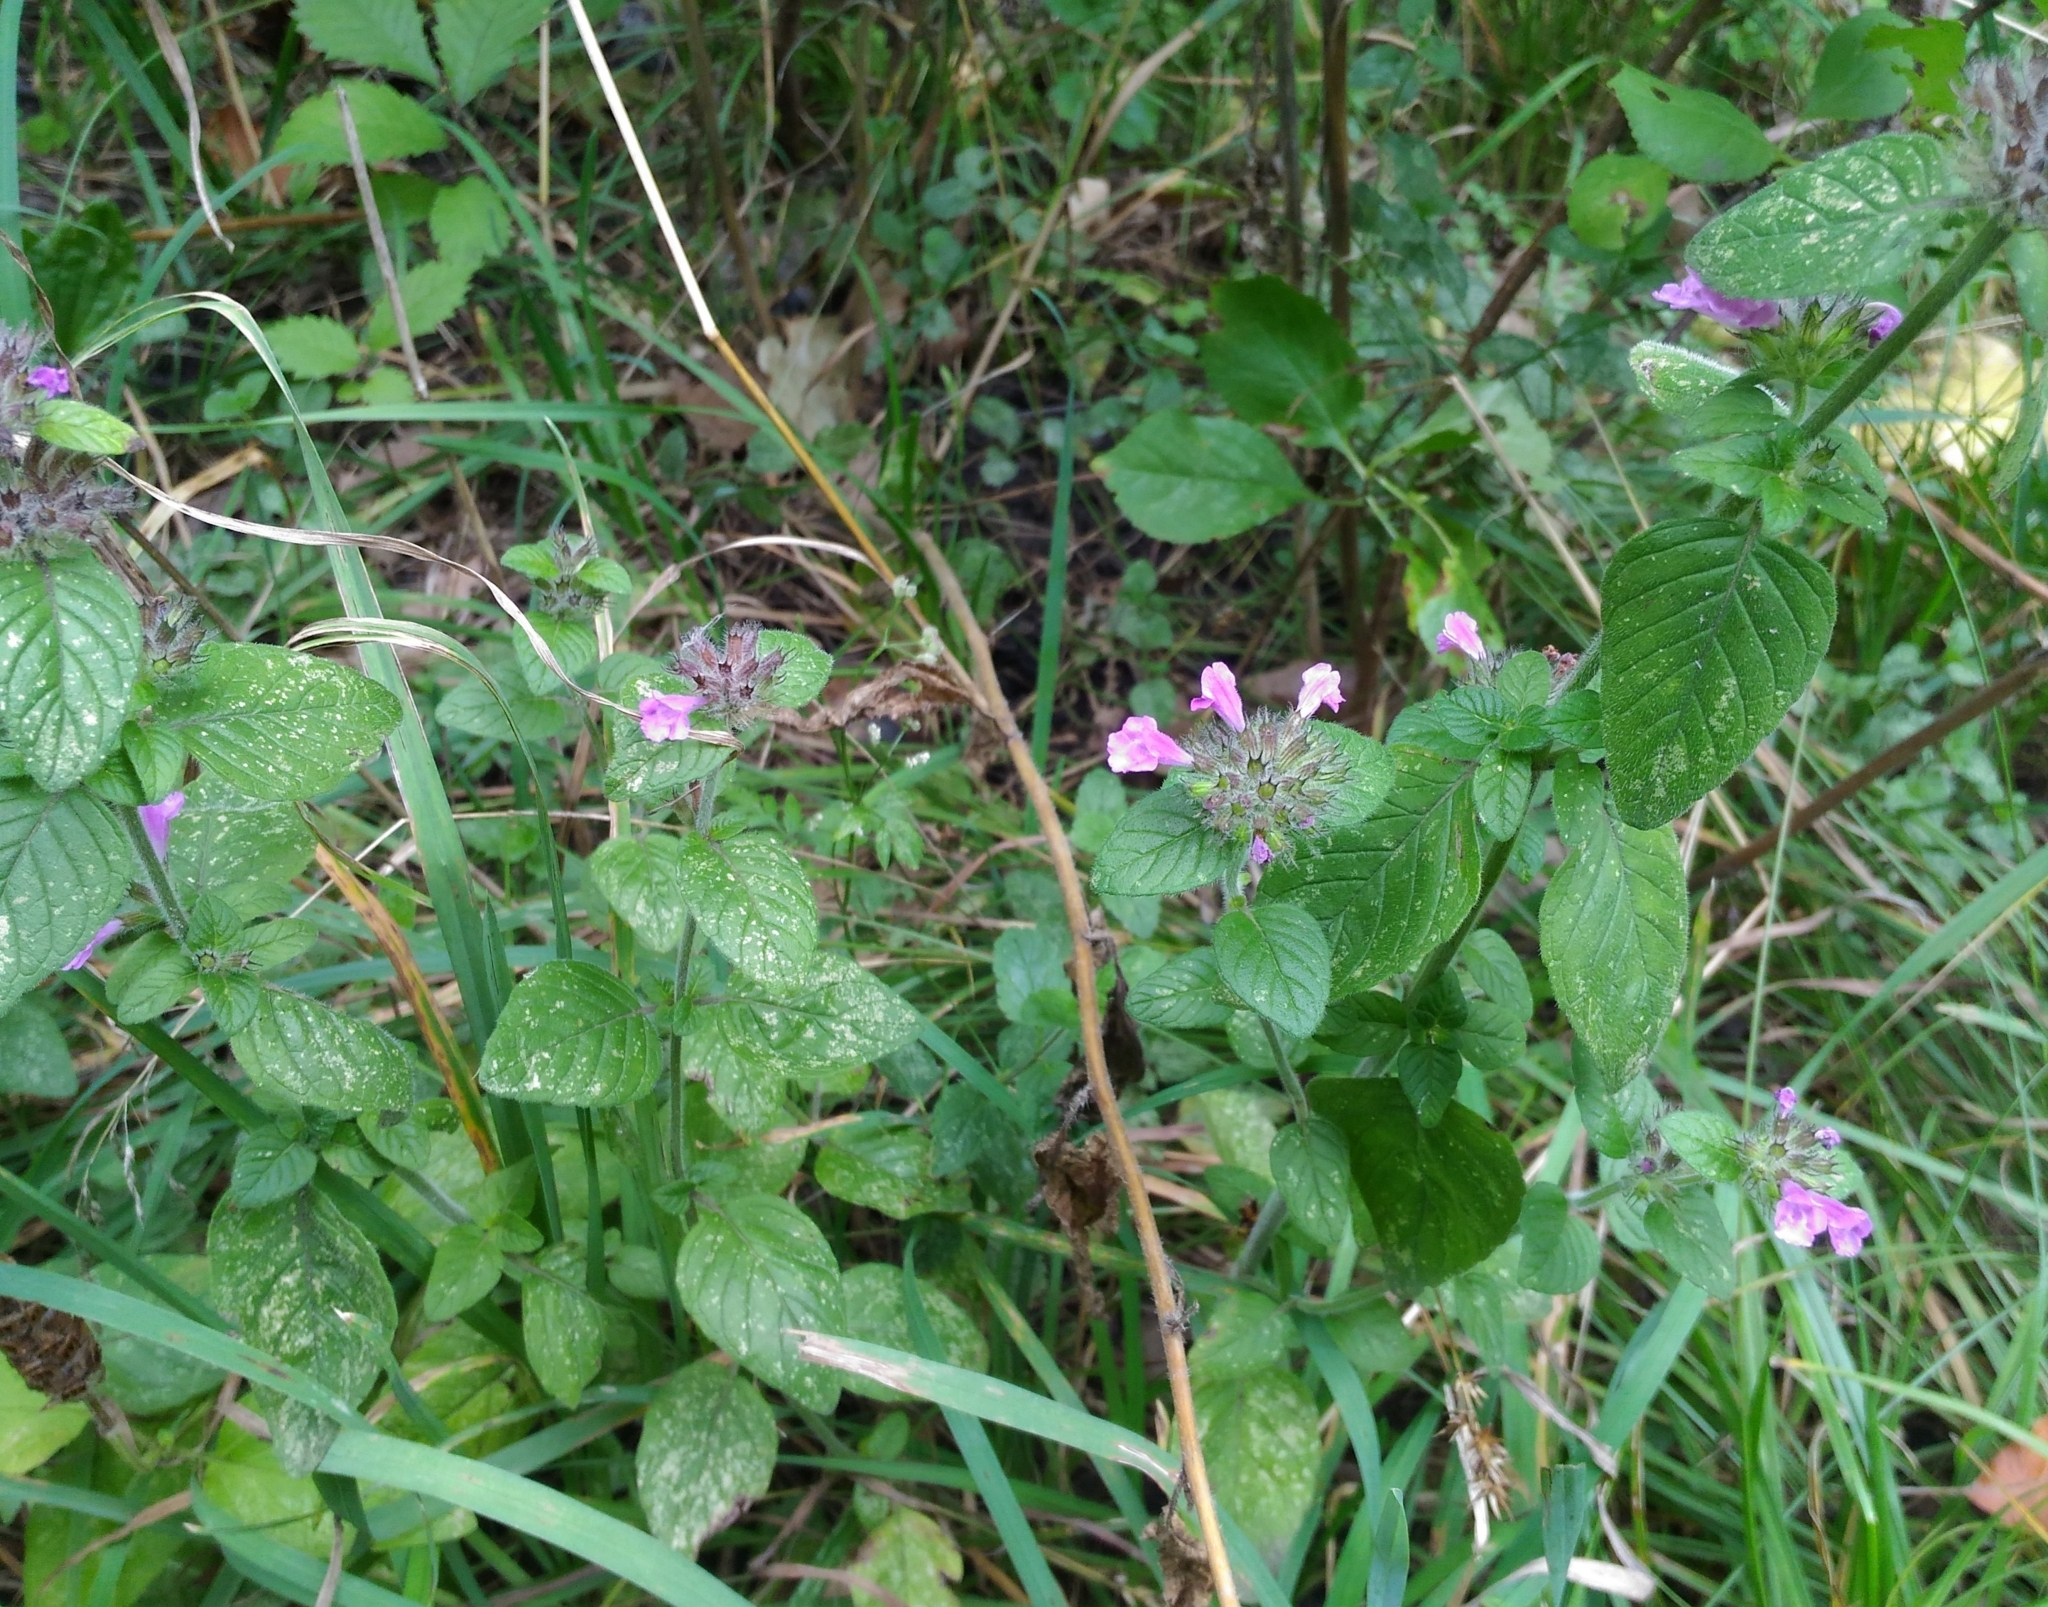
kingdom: Plantae
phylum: Tracheophyta
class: Magnoliopsida
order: Lamiales
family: Lamiaceae
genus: Clinopodium
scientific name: Clinopodium vulgare
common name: Wild basil
